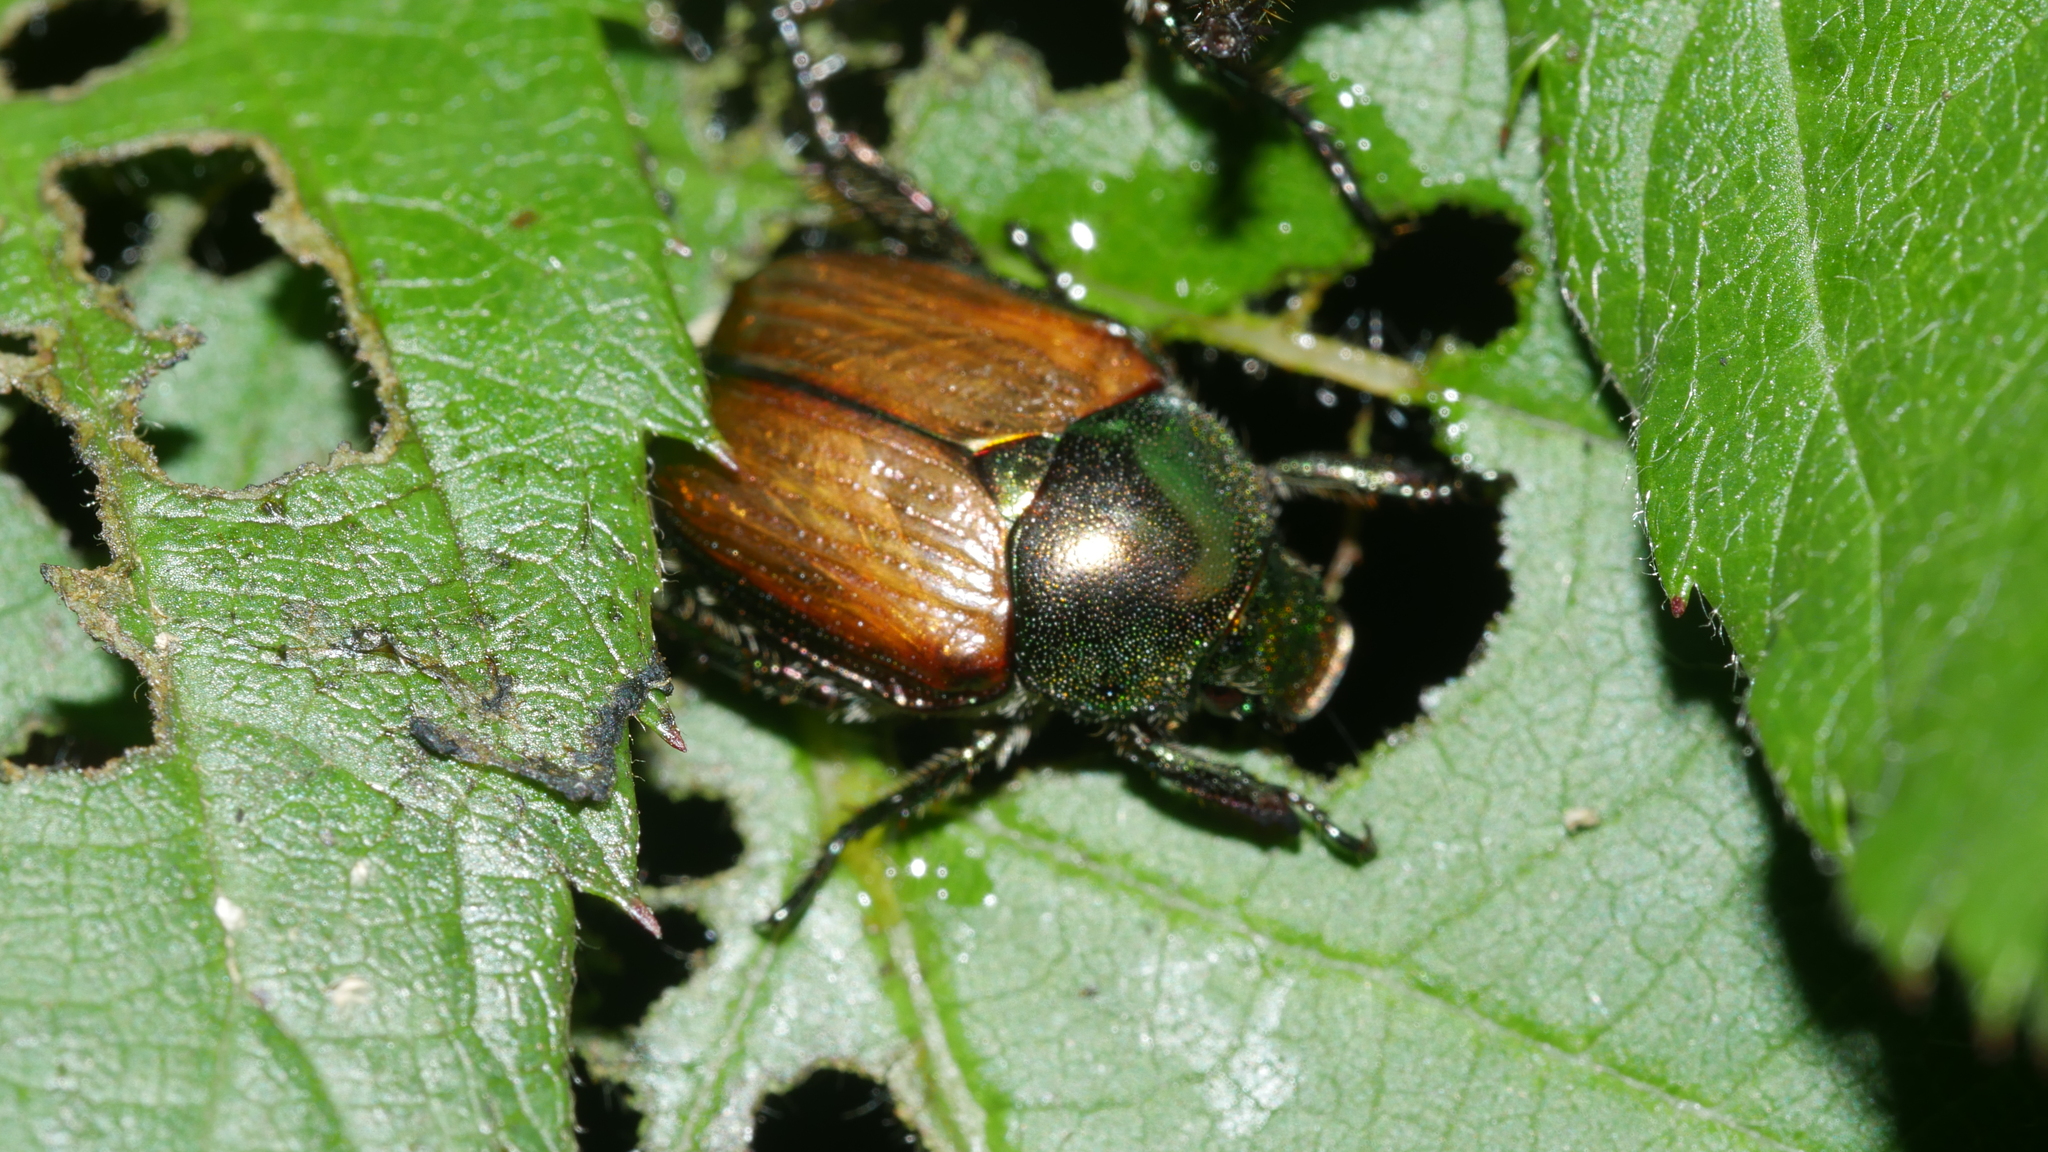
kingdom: Animalia
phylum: Arthropoda
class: Insecta
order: Coleoptera
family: Scarabaeidae
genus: Popillia
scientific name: Popillia japonica
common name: Japanese beetle
